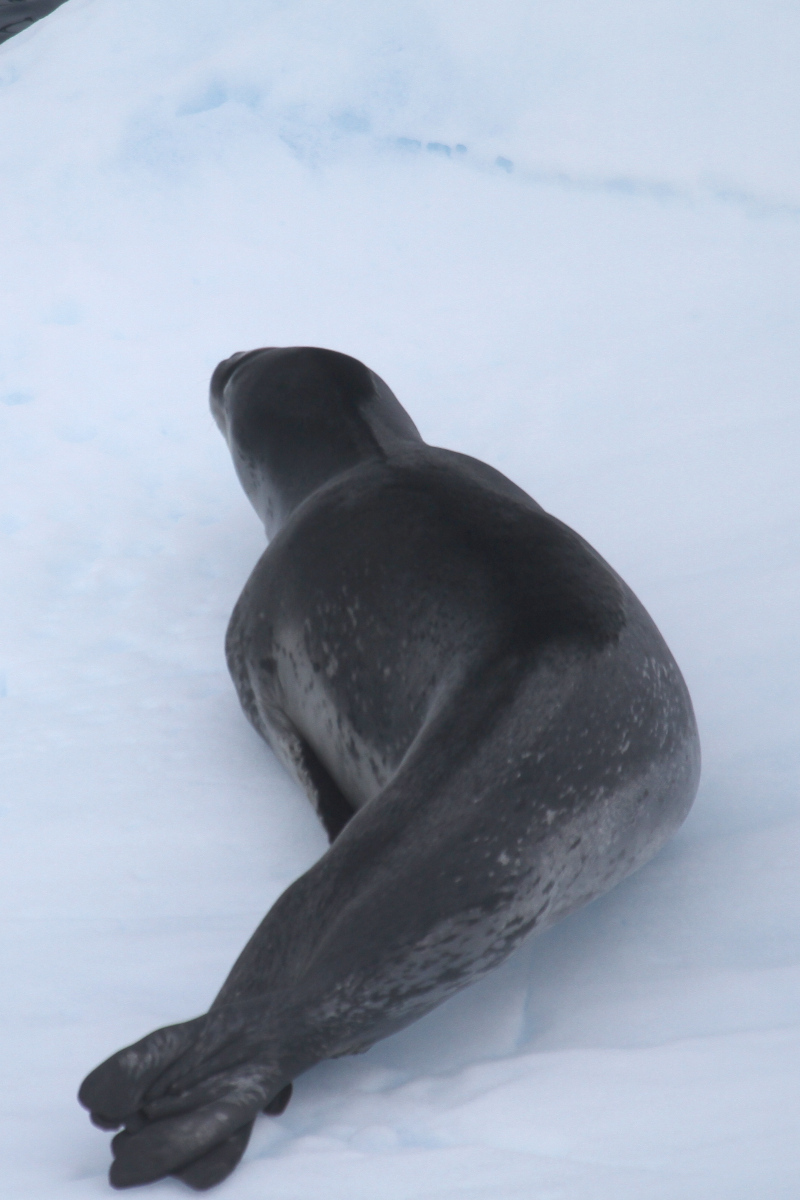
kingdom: Animalia
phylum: Chordata
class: Mammalia
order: Carnivora
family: Phocidae
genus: Hydrurga
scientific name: Hydrurga leptonyx
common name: Leopard seal
